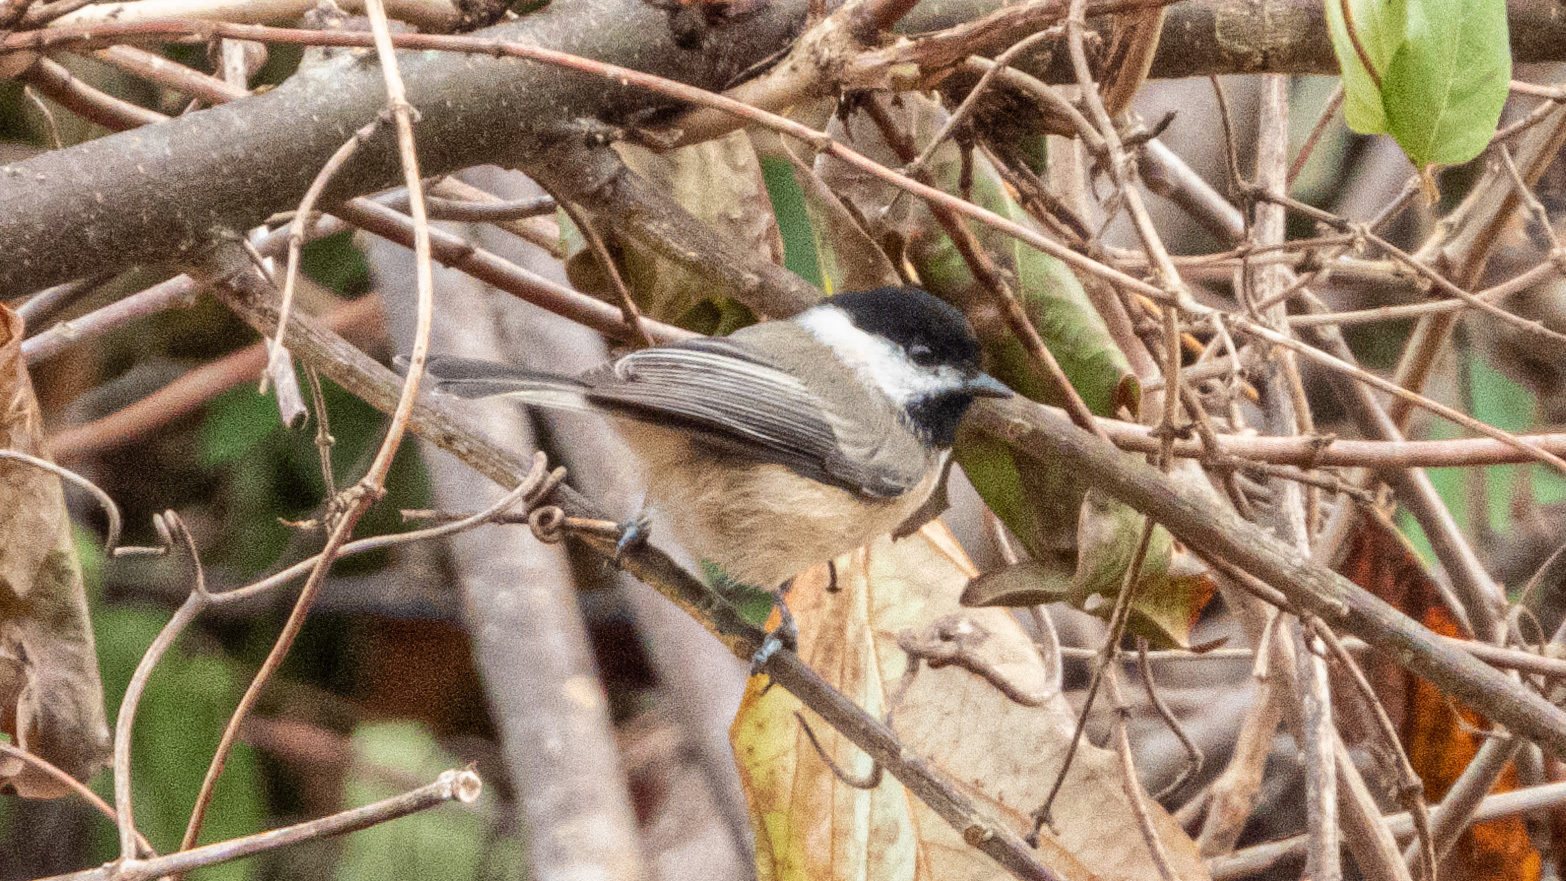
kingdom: Animalia
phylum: Chordata
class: Aves
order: Passeriformes
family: Paridae
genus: Poecile
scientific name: Poecile carolinensis
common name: Carolina chickadee
